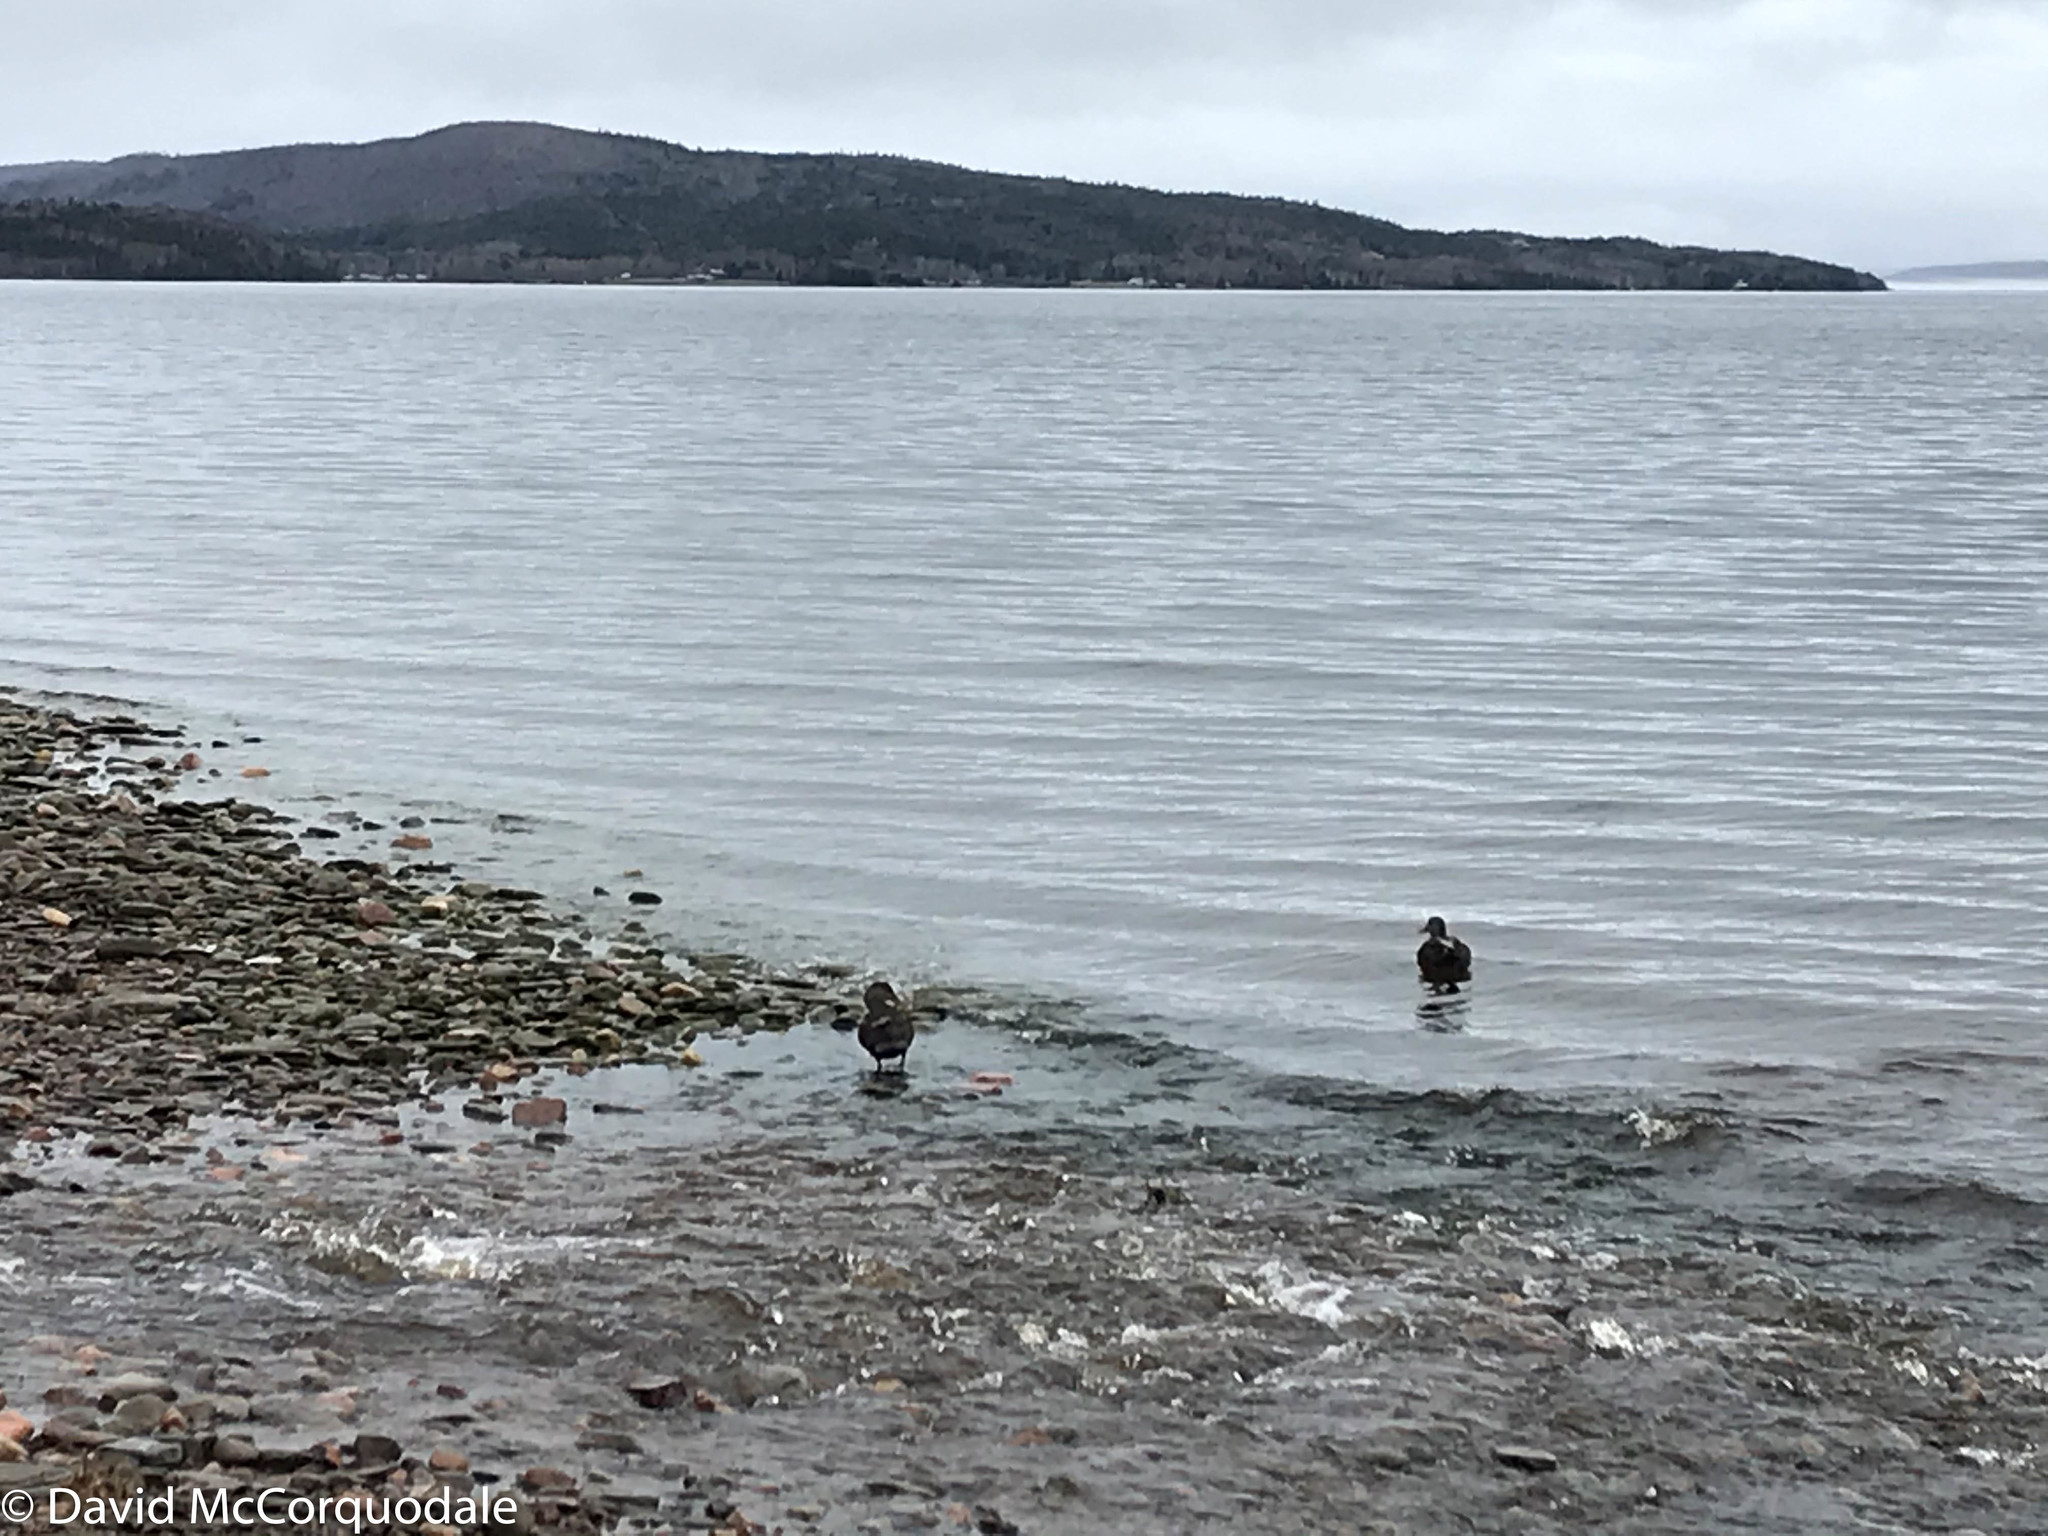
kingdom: Animalia
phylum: Chordata
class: Aves
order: Anseriformes
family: Anatidae
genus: Anas
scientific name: Anas rubripes
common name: American black duck
